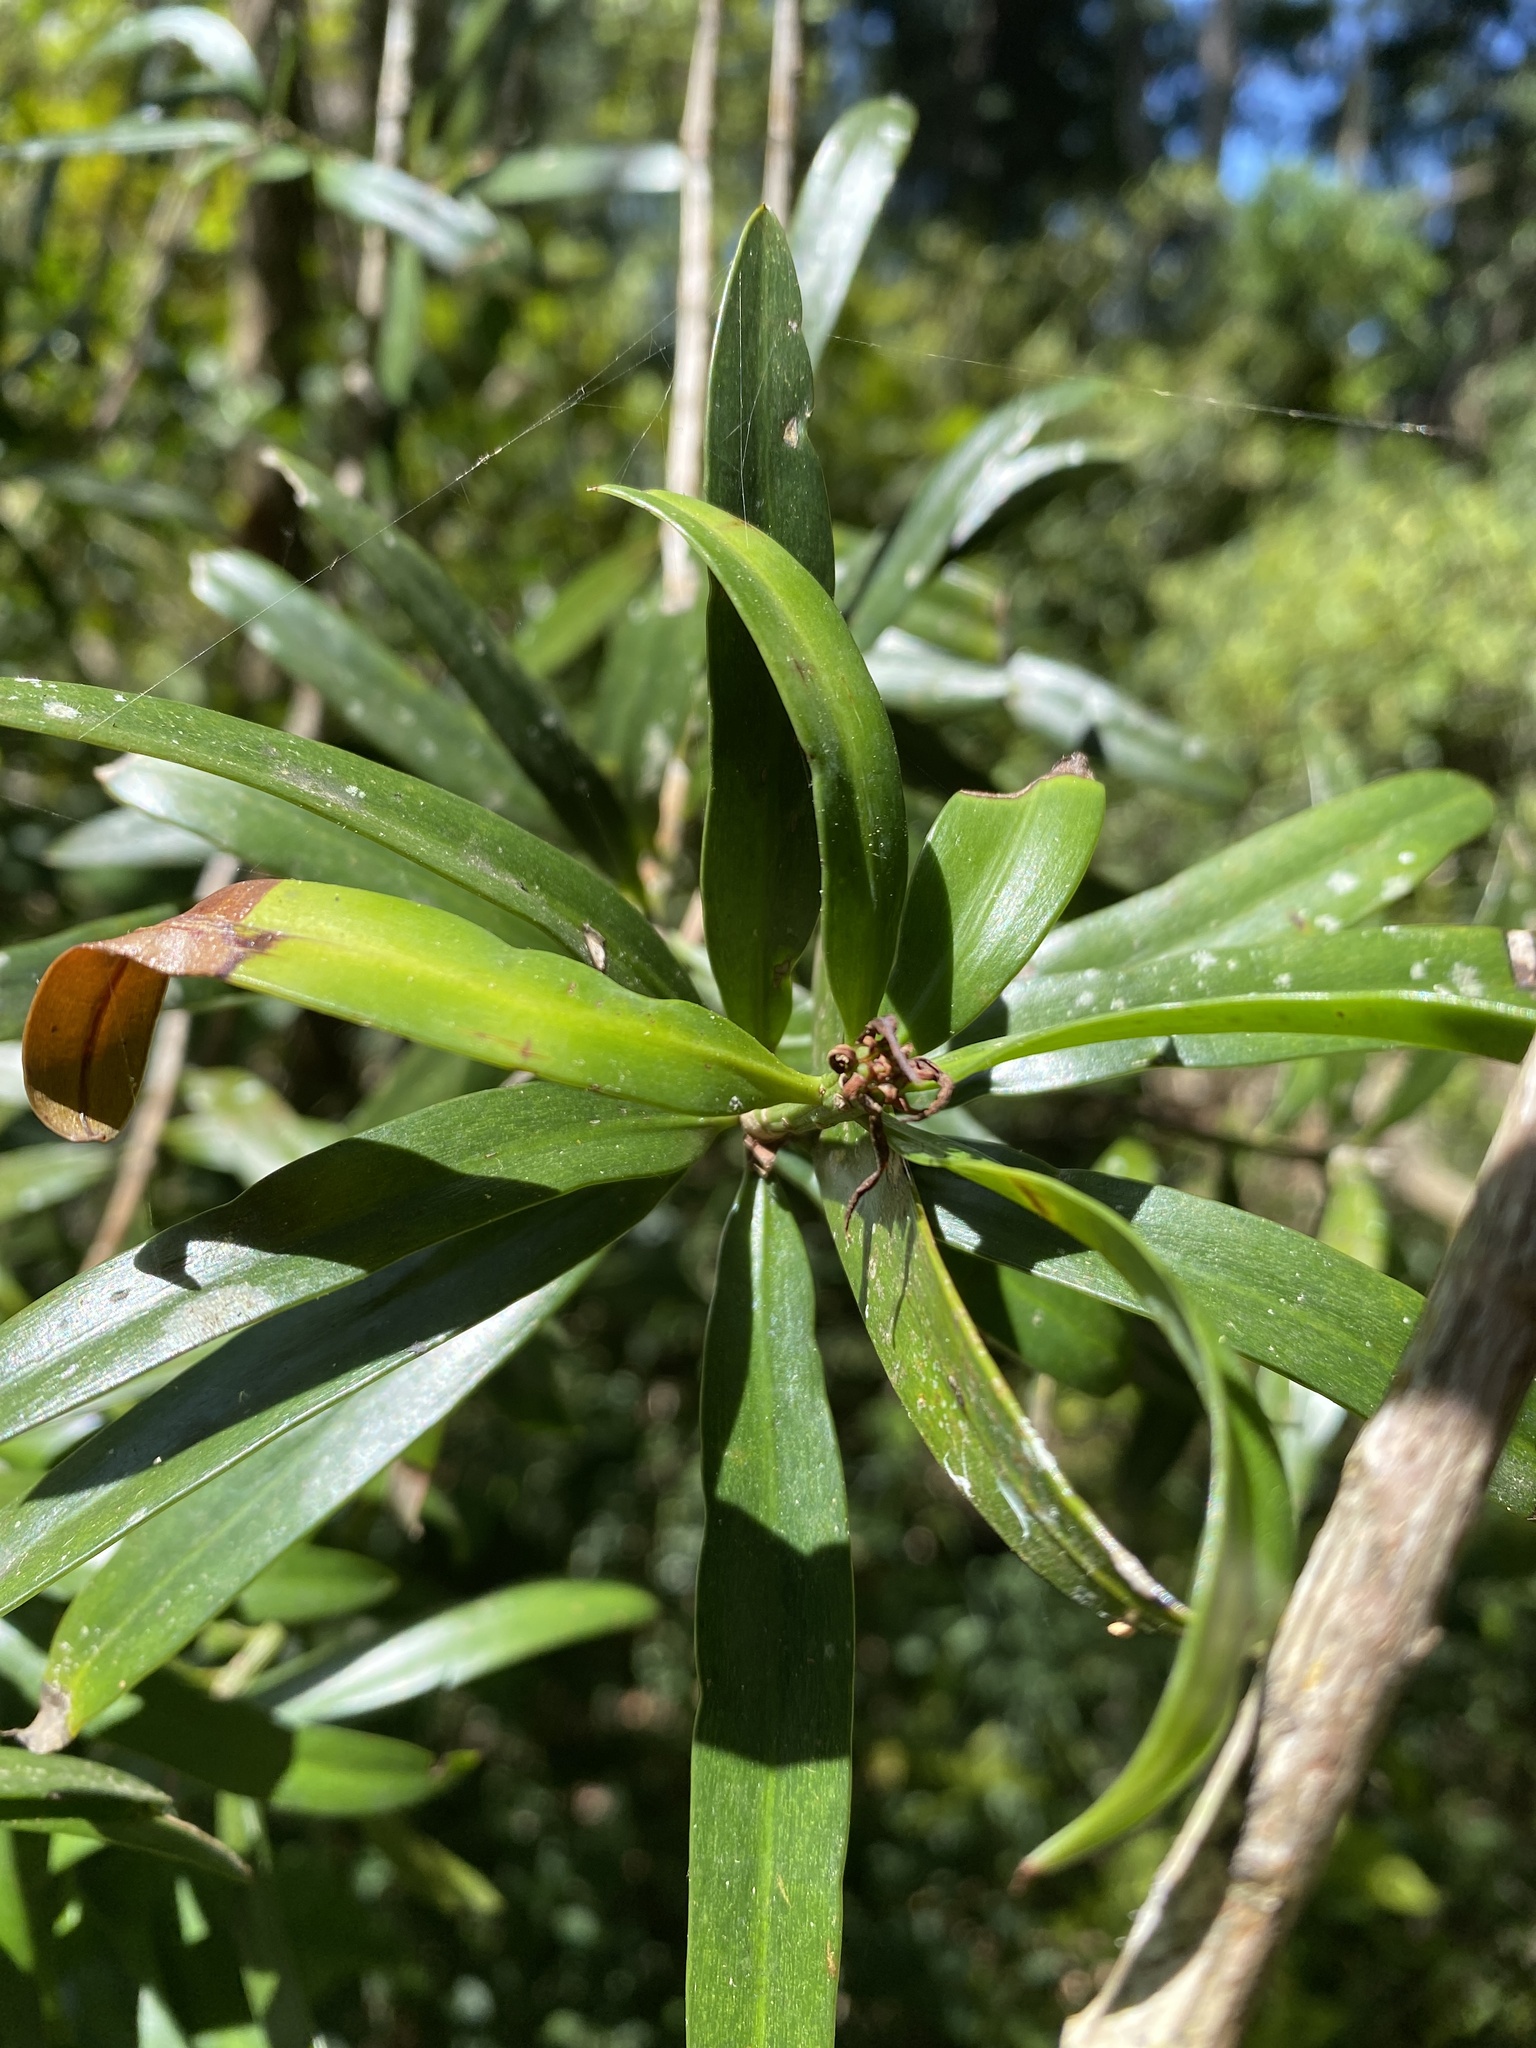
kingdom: Plantae
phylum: Tracheophyta
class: Pinopsida
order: Pinales
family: Podocarpaceae
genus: Podocarpus
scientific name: Podocarpus latifolius
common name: True yellowwood
